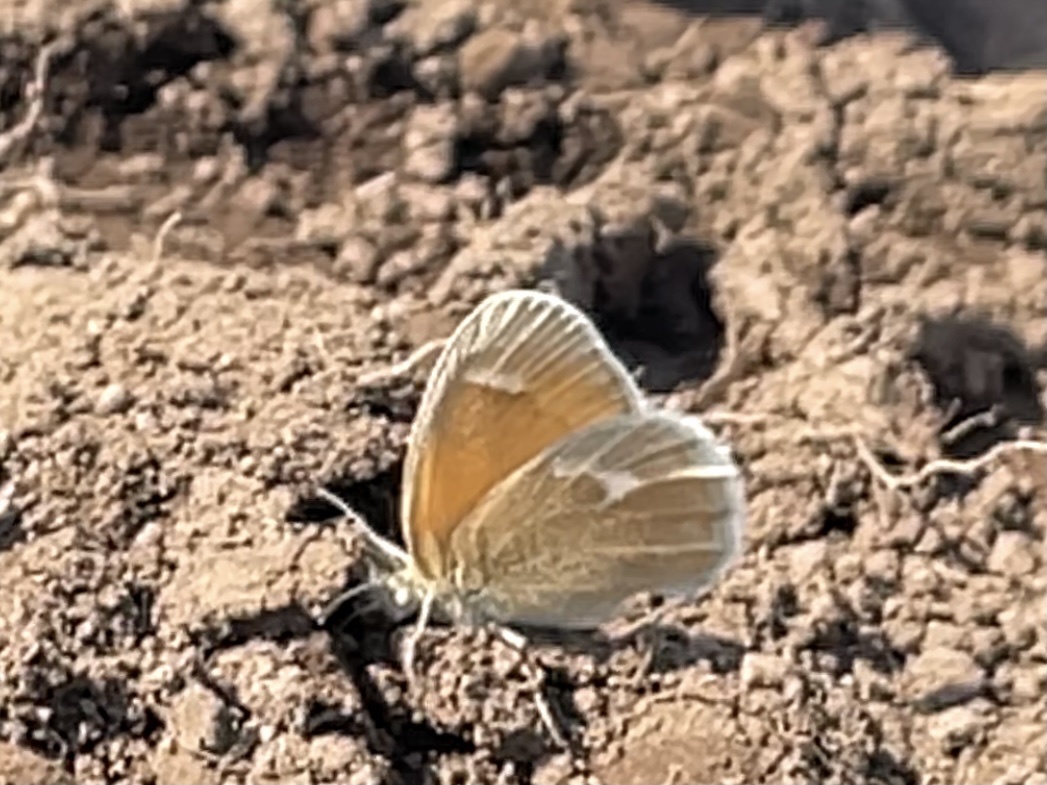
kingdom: Animalia
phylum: Arthropoda
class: Insecta
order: Lepidoptera
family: Nymphalidae
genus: Coenonympha
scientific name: Coenonympha california
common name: Common ringlet
